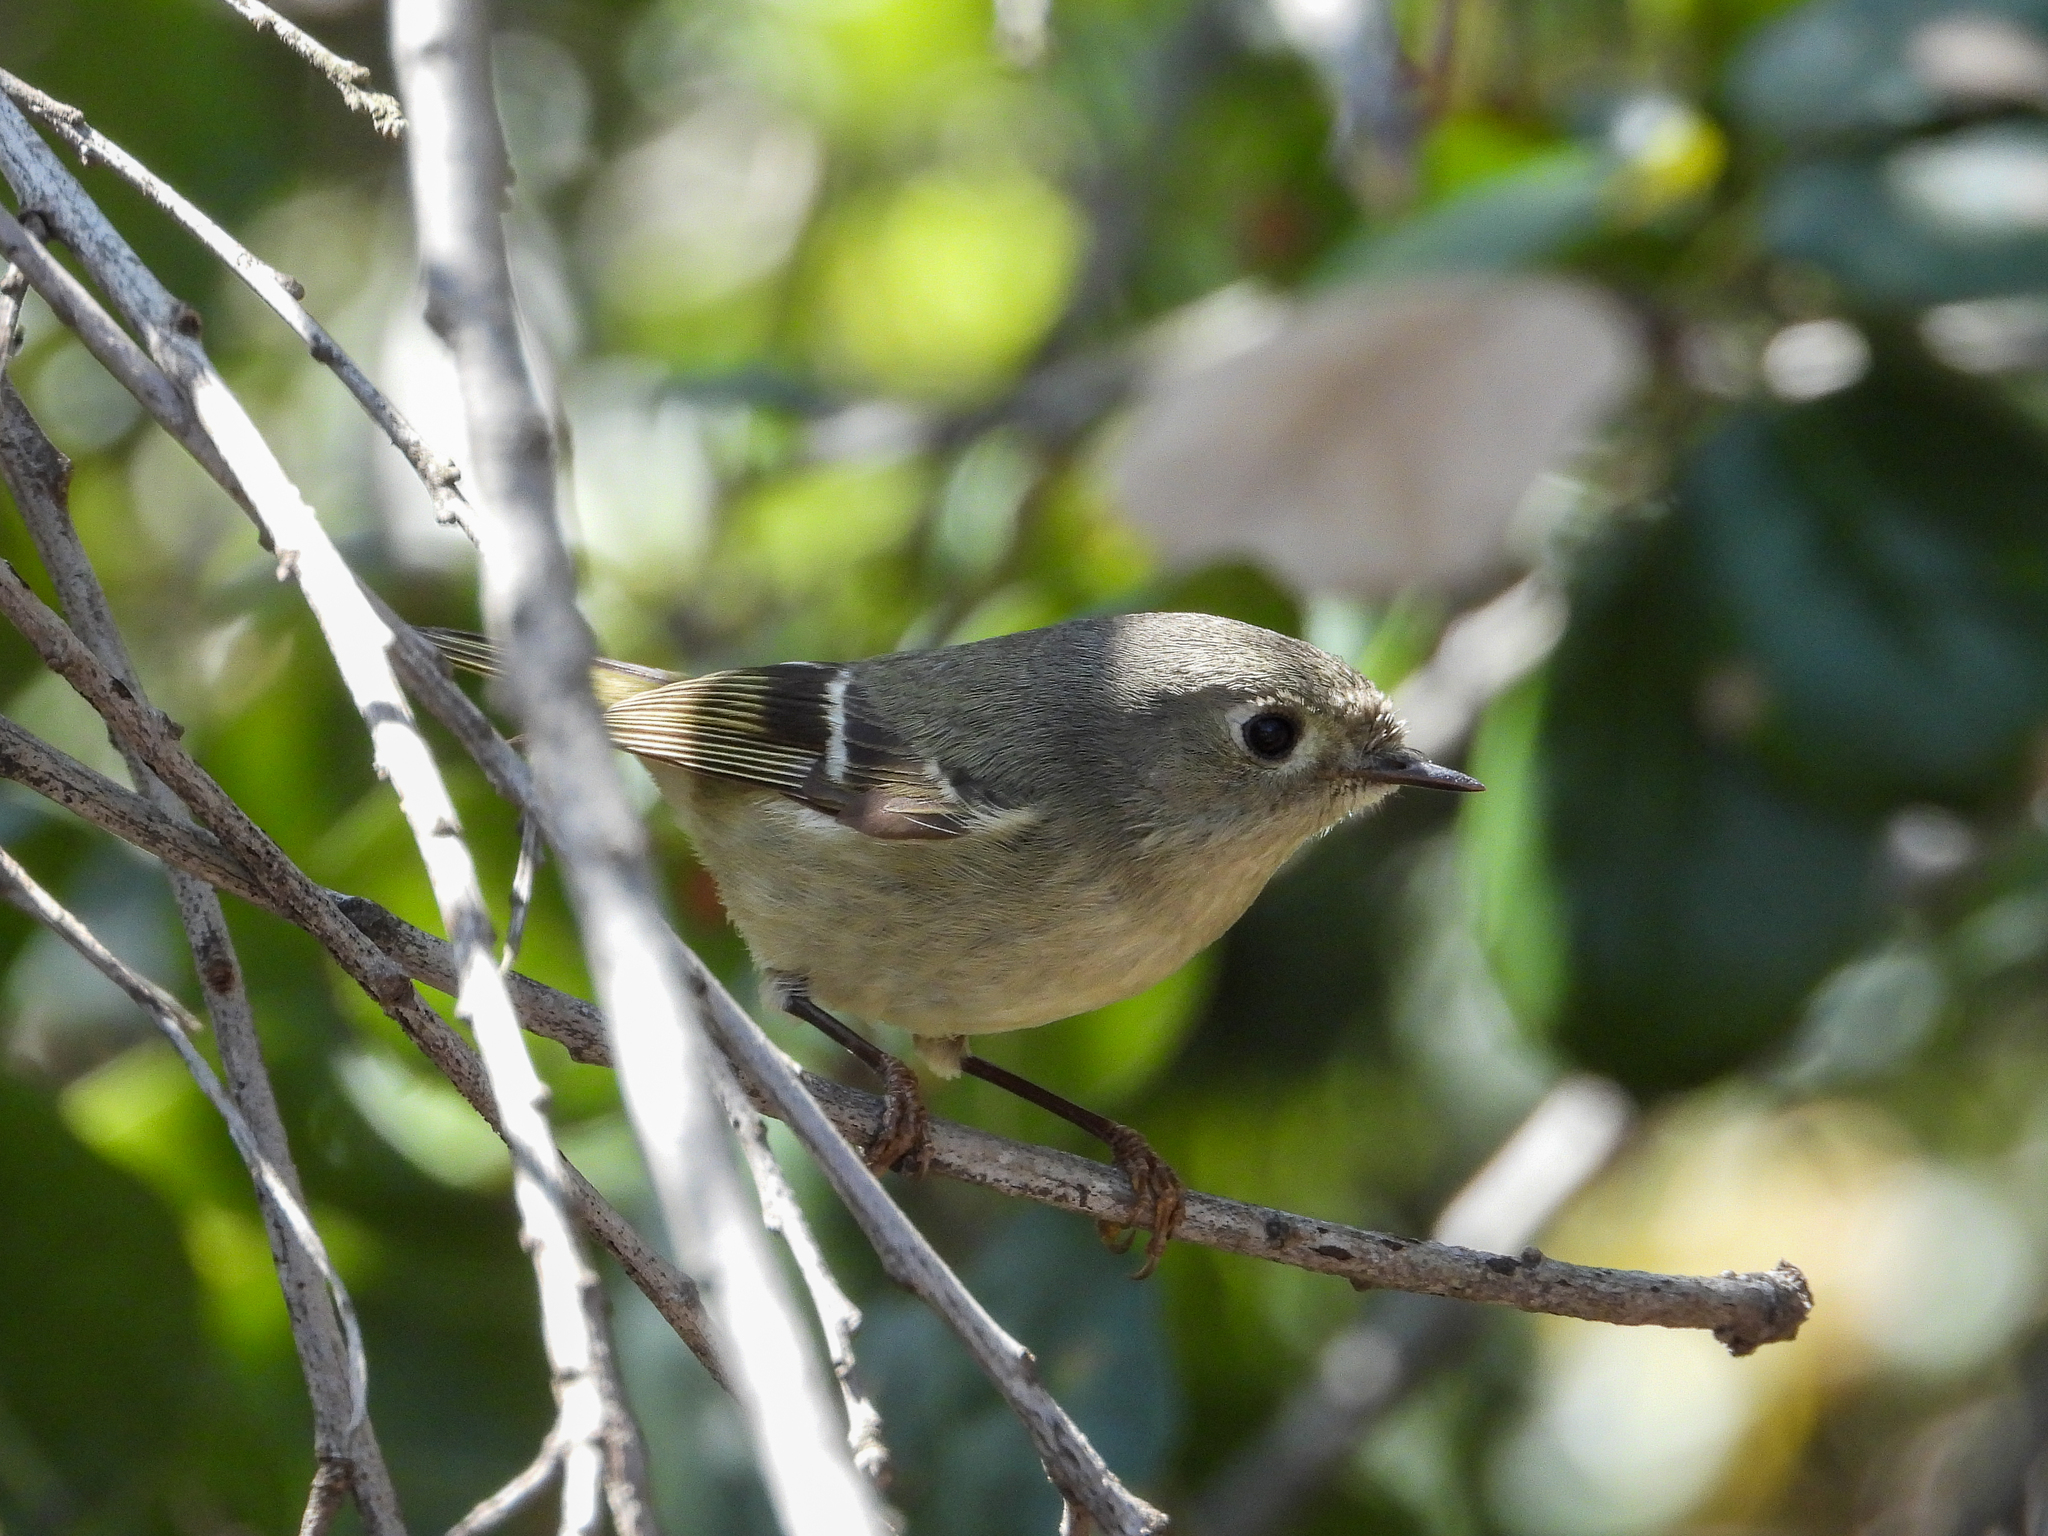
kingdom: Animalia
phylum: Chordata
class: Aves
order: Passeriformes
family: Regulidae
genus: Regulus
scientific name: Regulus calendula
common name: Ruby-crowned kinglet
